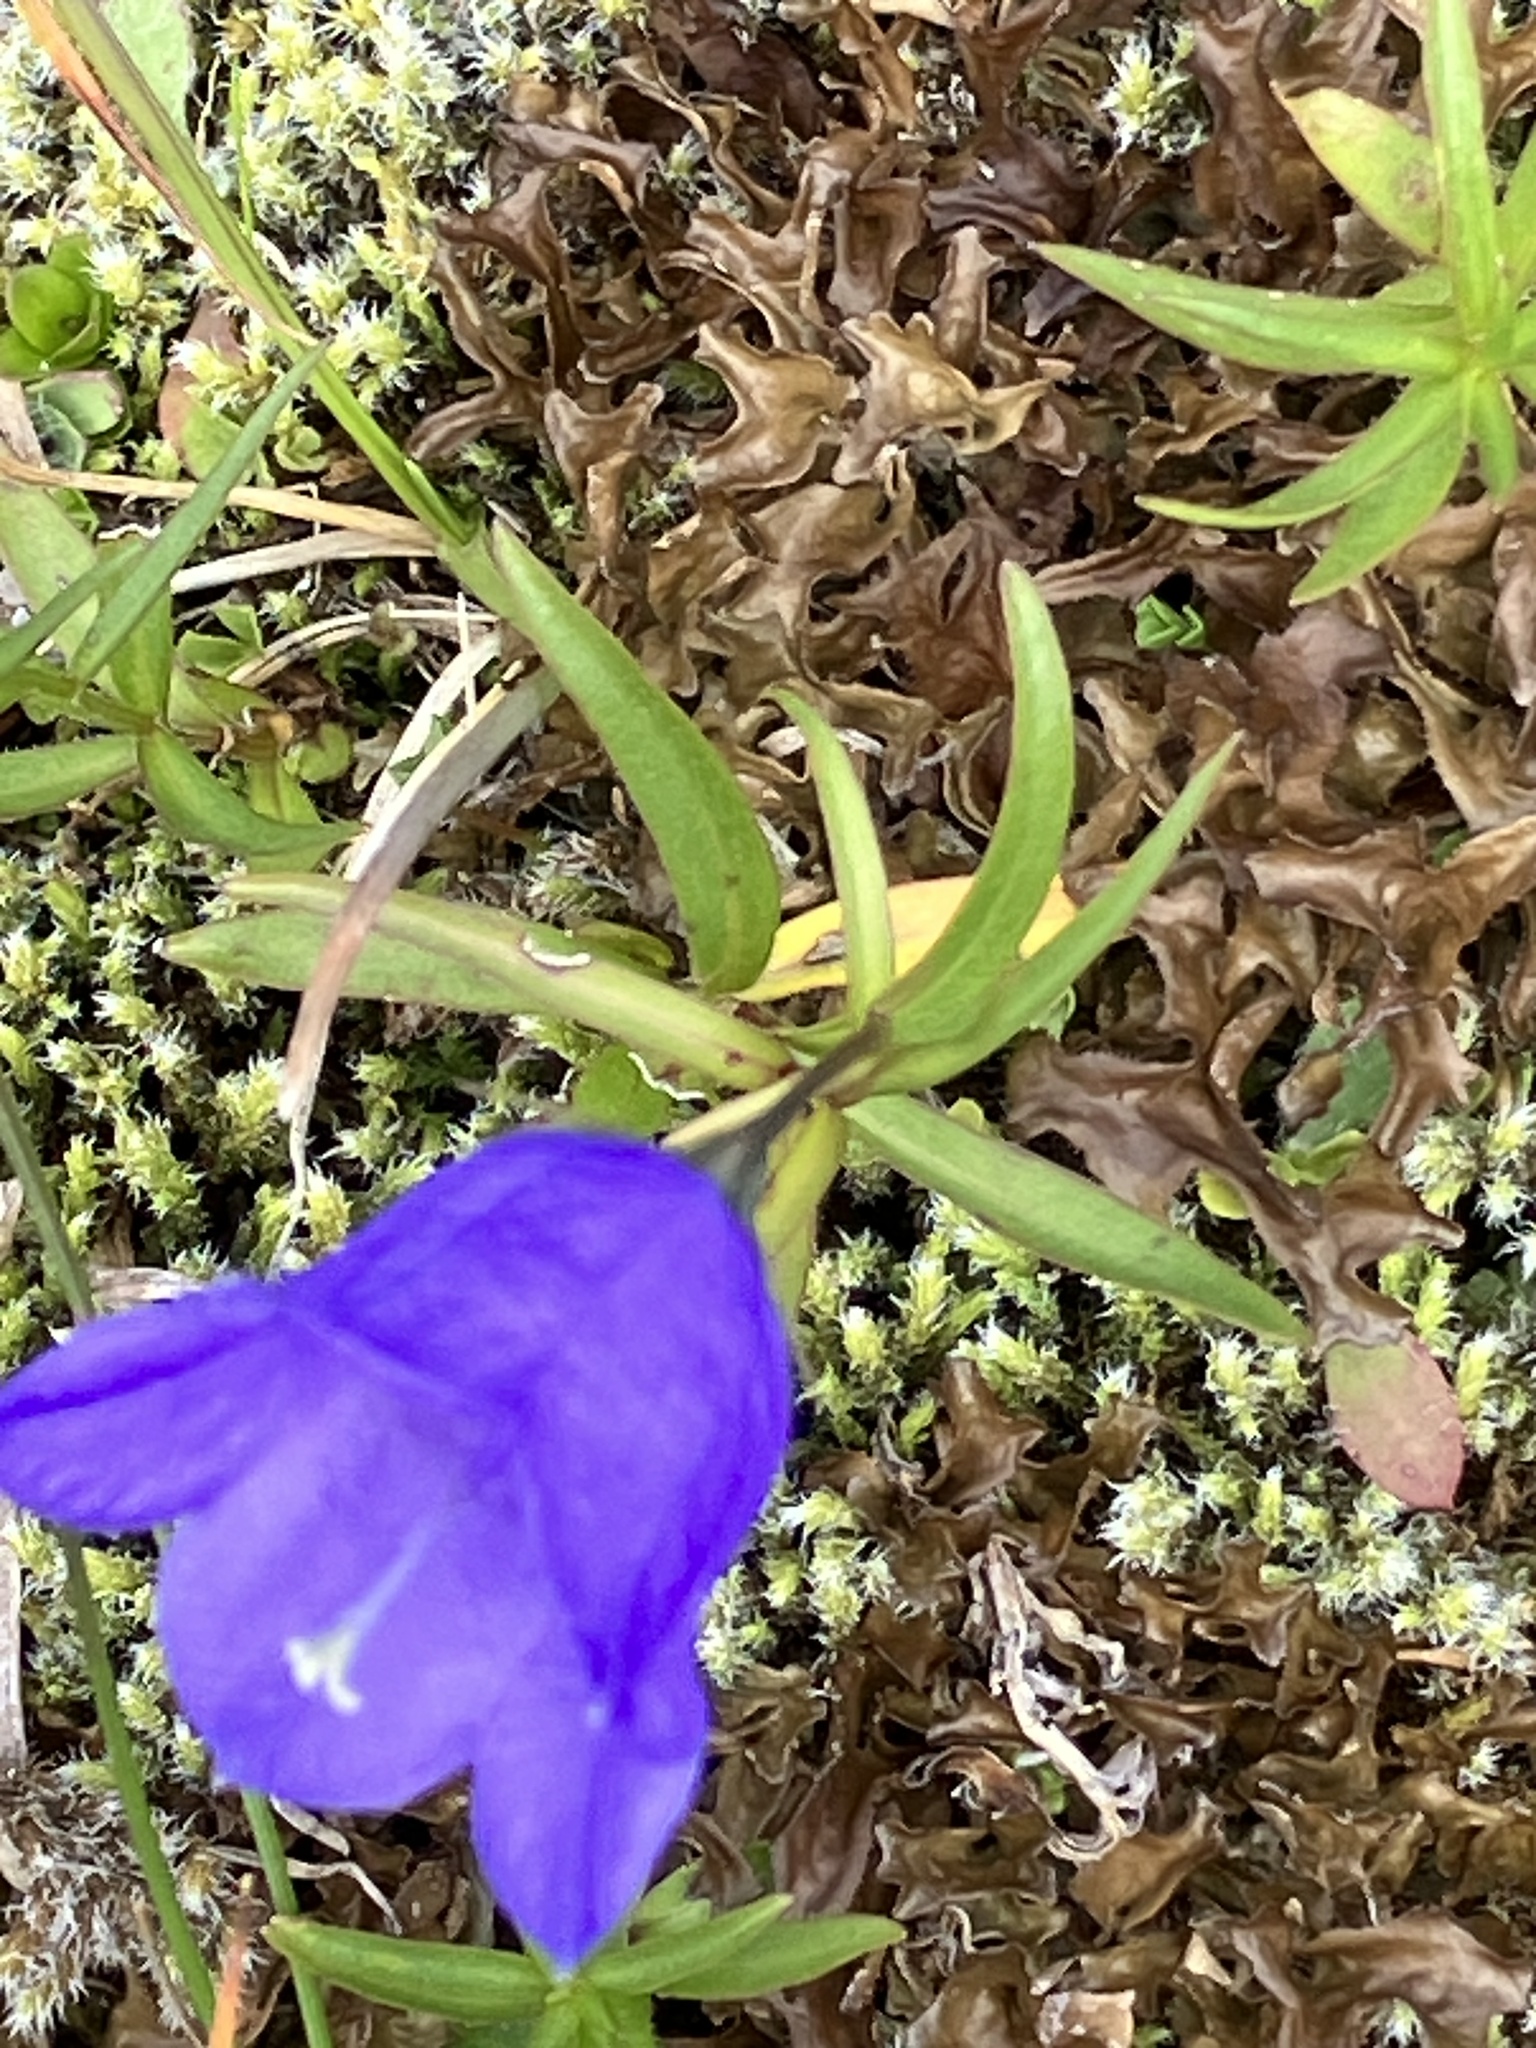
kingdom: Plantae
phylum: Tracheophyta
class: Magnoliopsida
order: Asterales
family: Campanulaceae
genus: Campanula
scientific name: Campanula scheuchzeri
